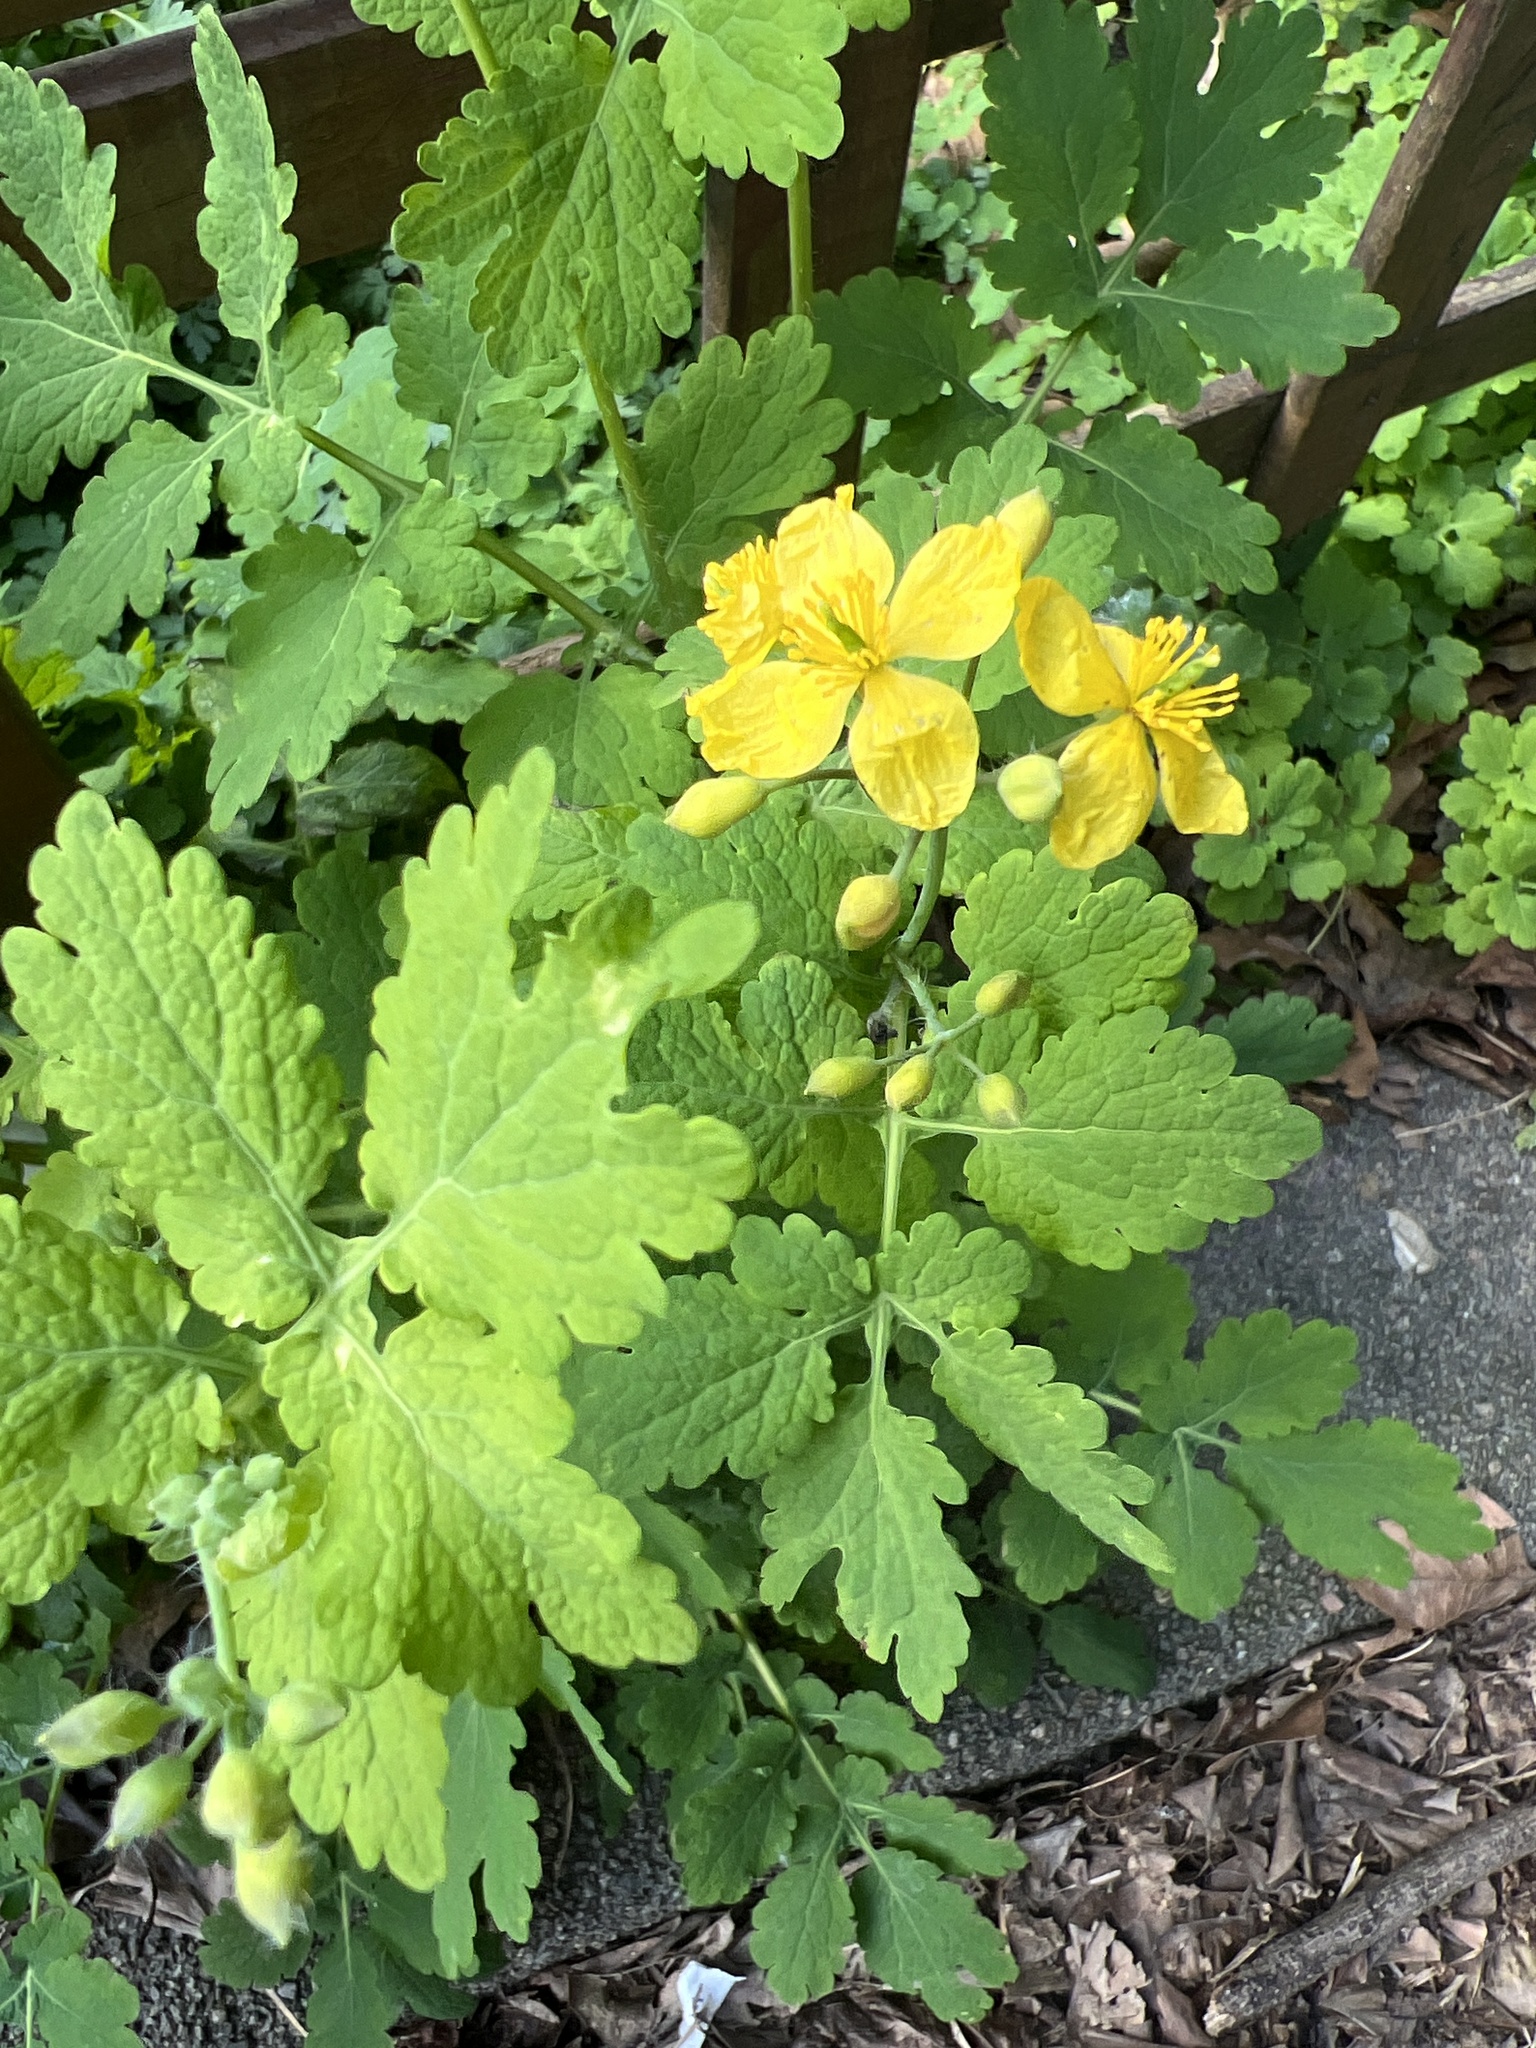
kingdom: Plantae
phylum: Tracheophyta
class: Magnoliopsida
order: Ranunculales
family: Papaveraceae
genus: Chelidonium
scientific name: Chelidonium majus
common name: Greater celandine
